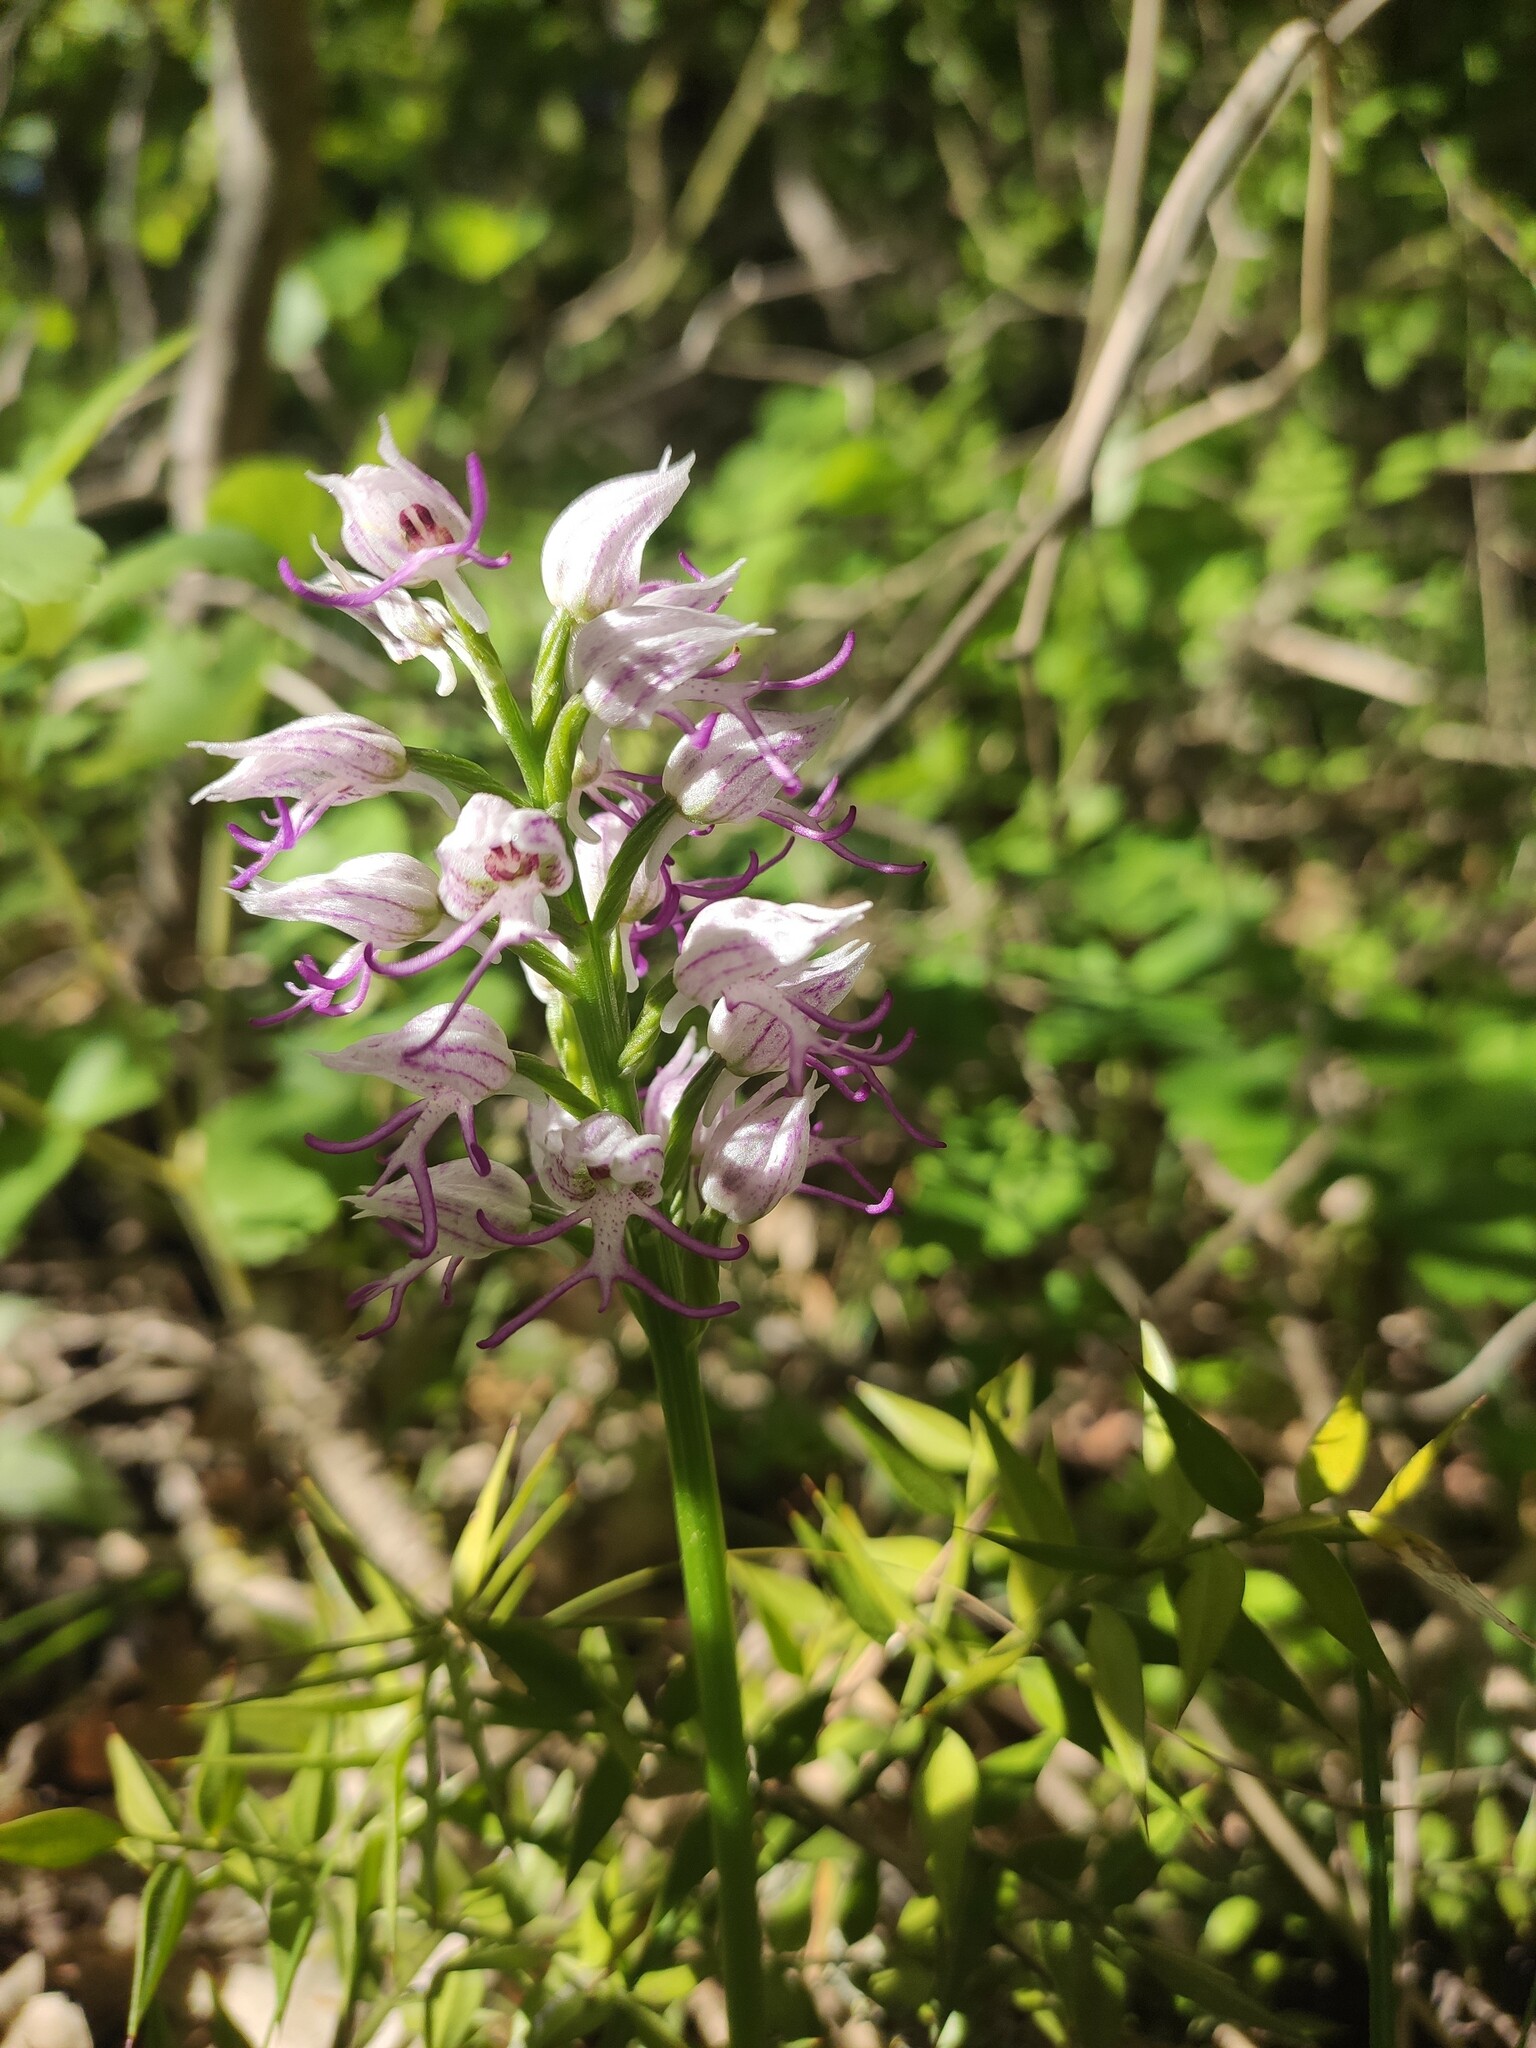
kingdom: Plantae
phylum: Tracheophyta
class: Liliopsida
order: Asparagales
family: Orchidaceae
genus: Orchis
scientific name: Orchis simia
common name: Monkey orchid
